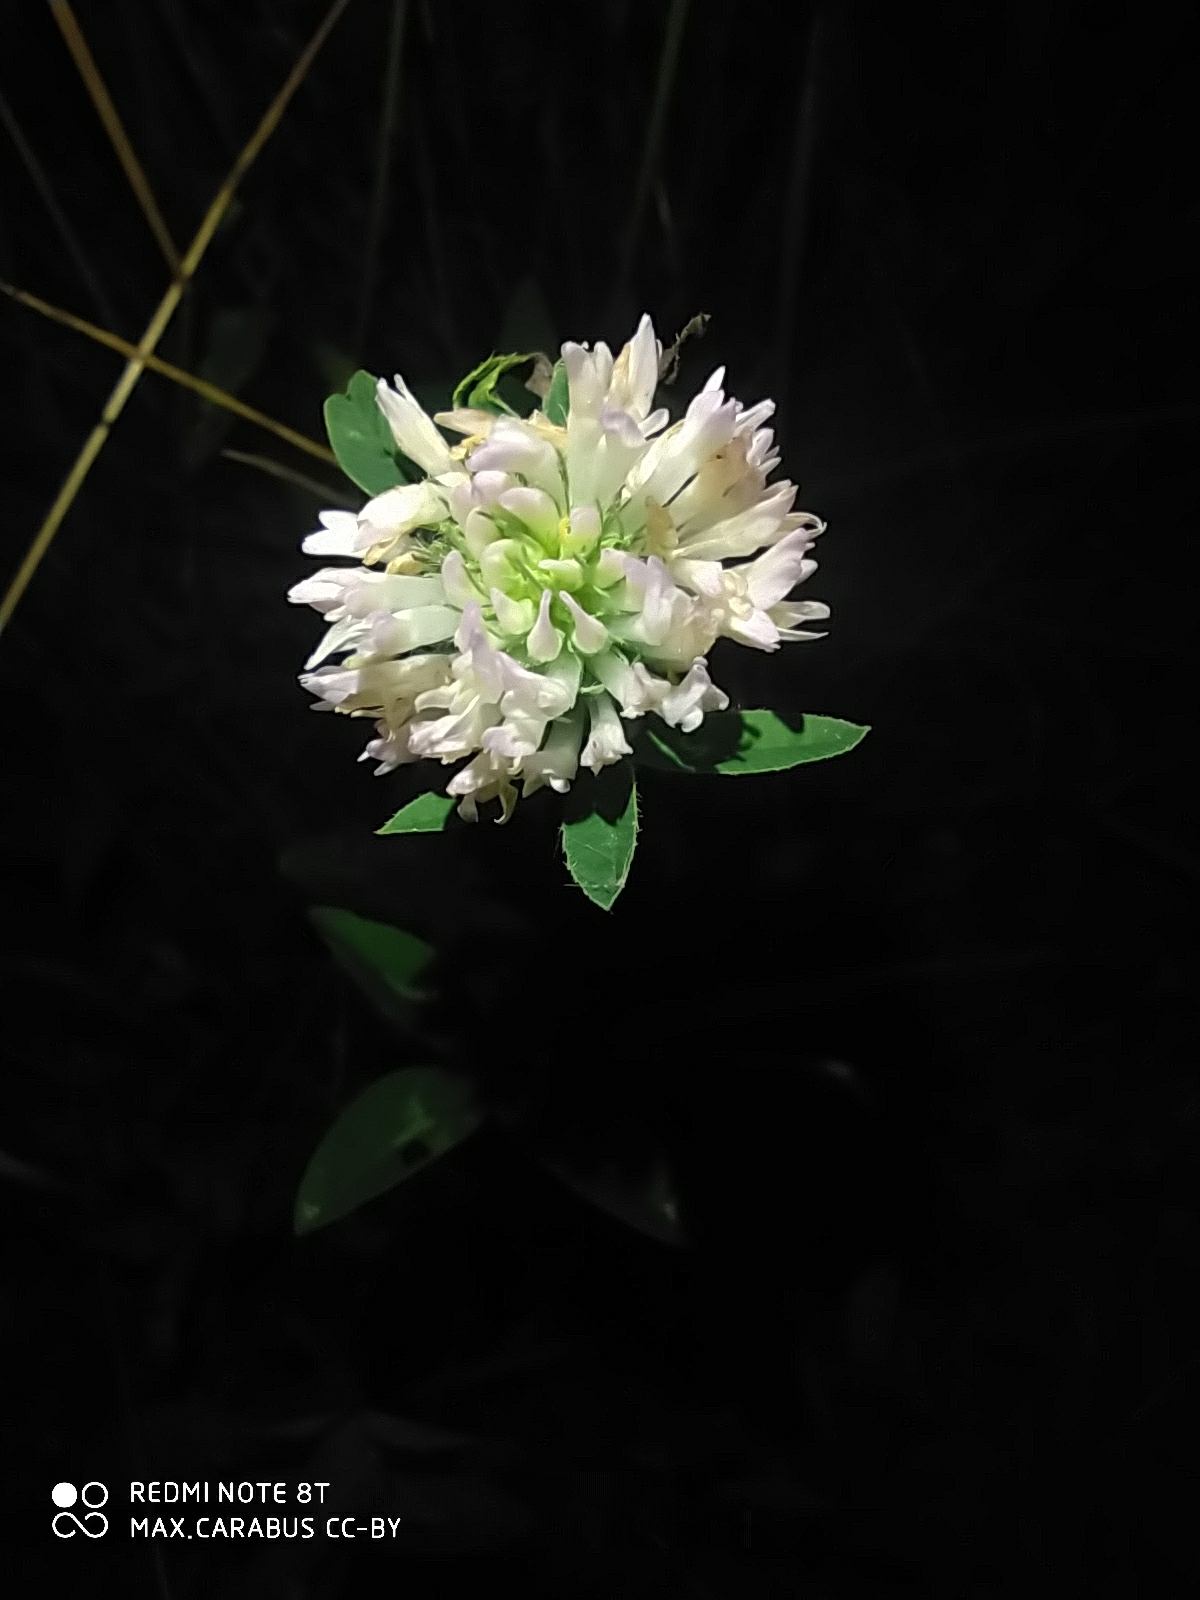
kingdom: Plantae
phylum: Tracheophyta
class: Magnoliopsida
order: Fabales
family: Fabaceae
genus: Trifolium
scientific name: Trifolium pratense
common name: Red clover
